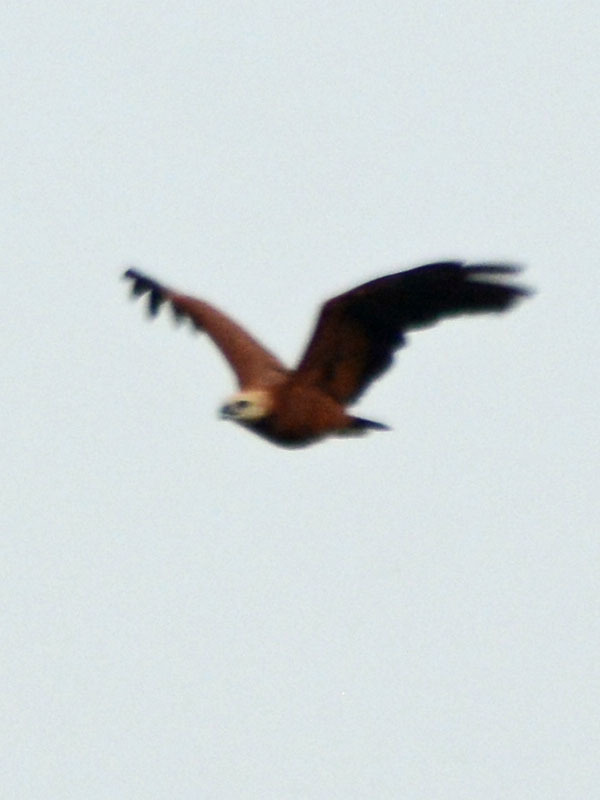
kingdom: Animalia
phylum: Chordata
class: Aves
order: Accipitriformes
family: Accipitridae
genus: Busarellus
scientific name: Busarellus nigricollis
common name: Black-collared hawk
